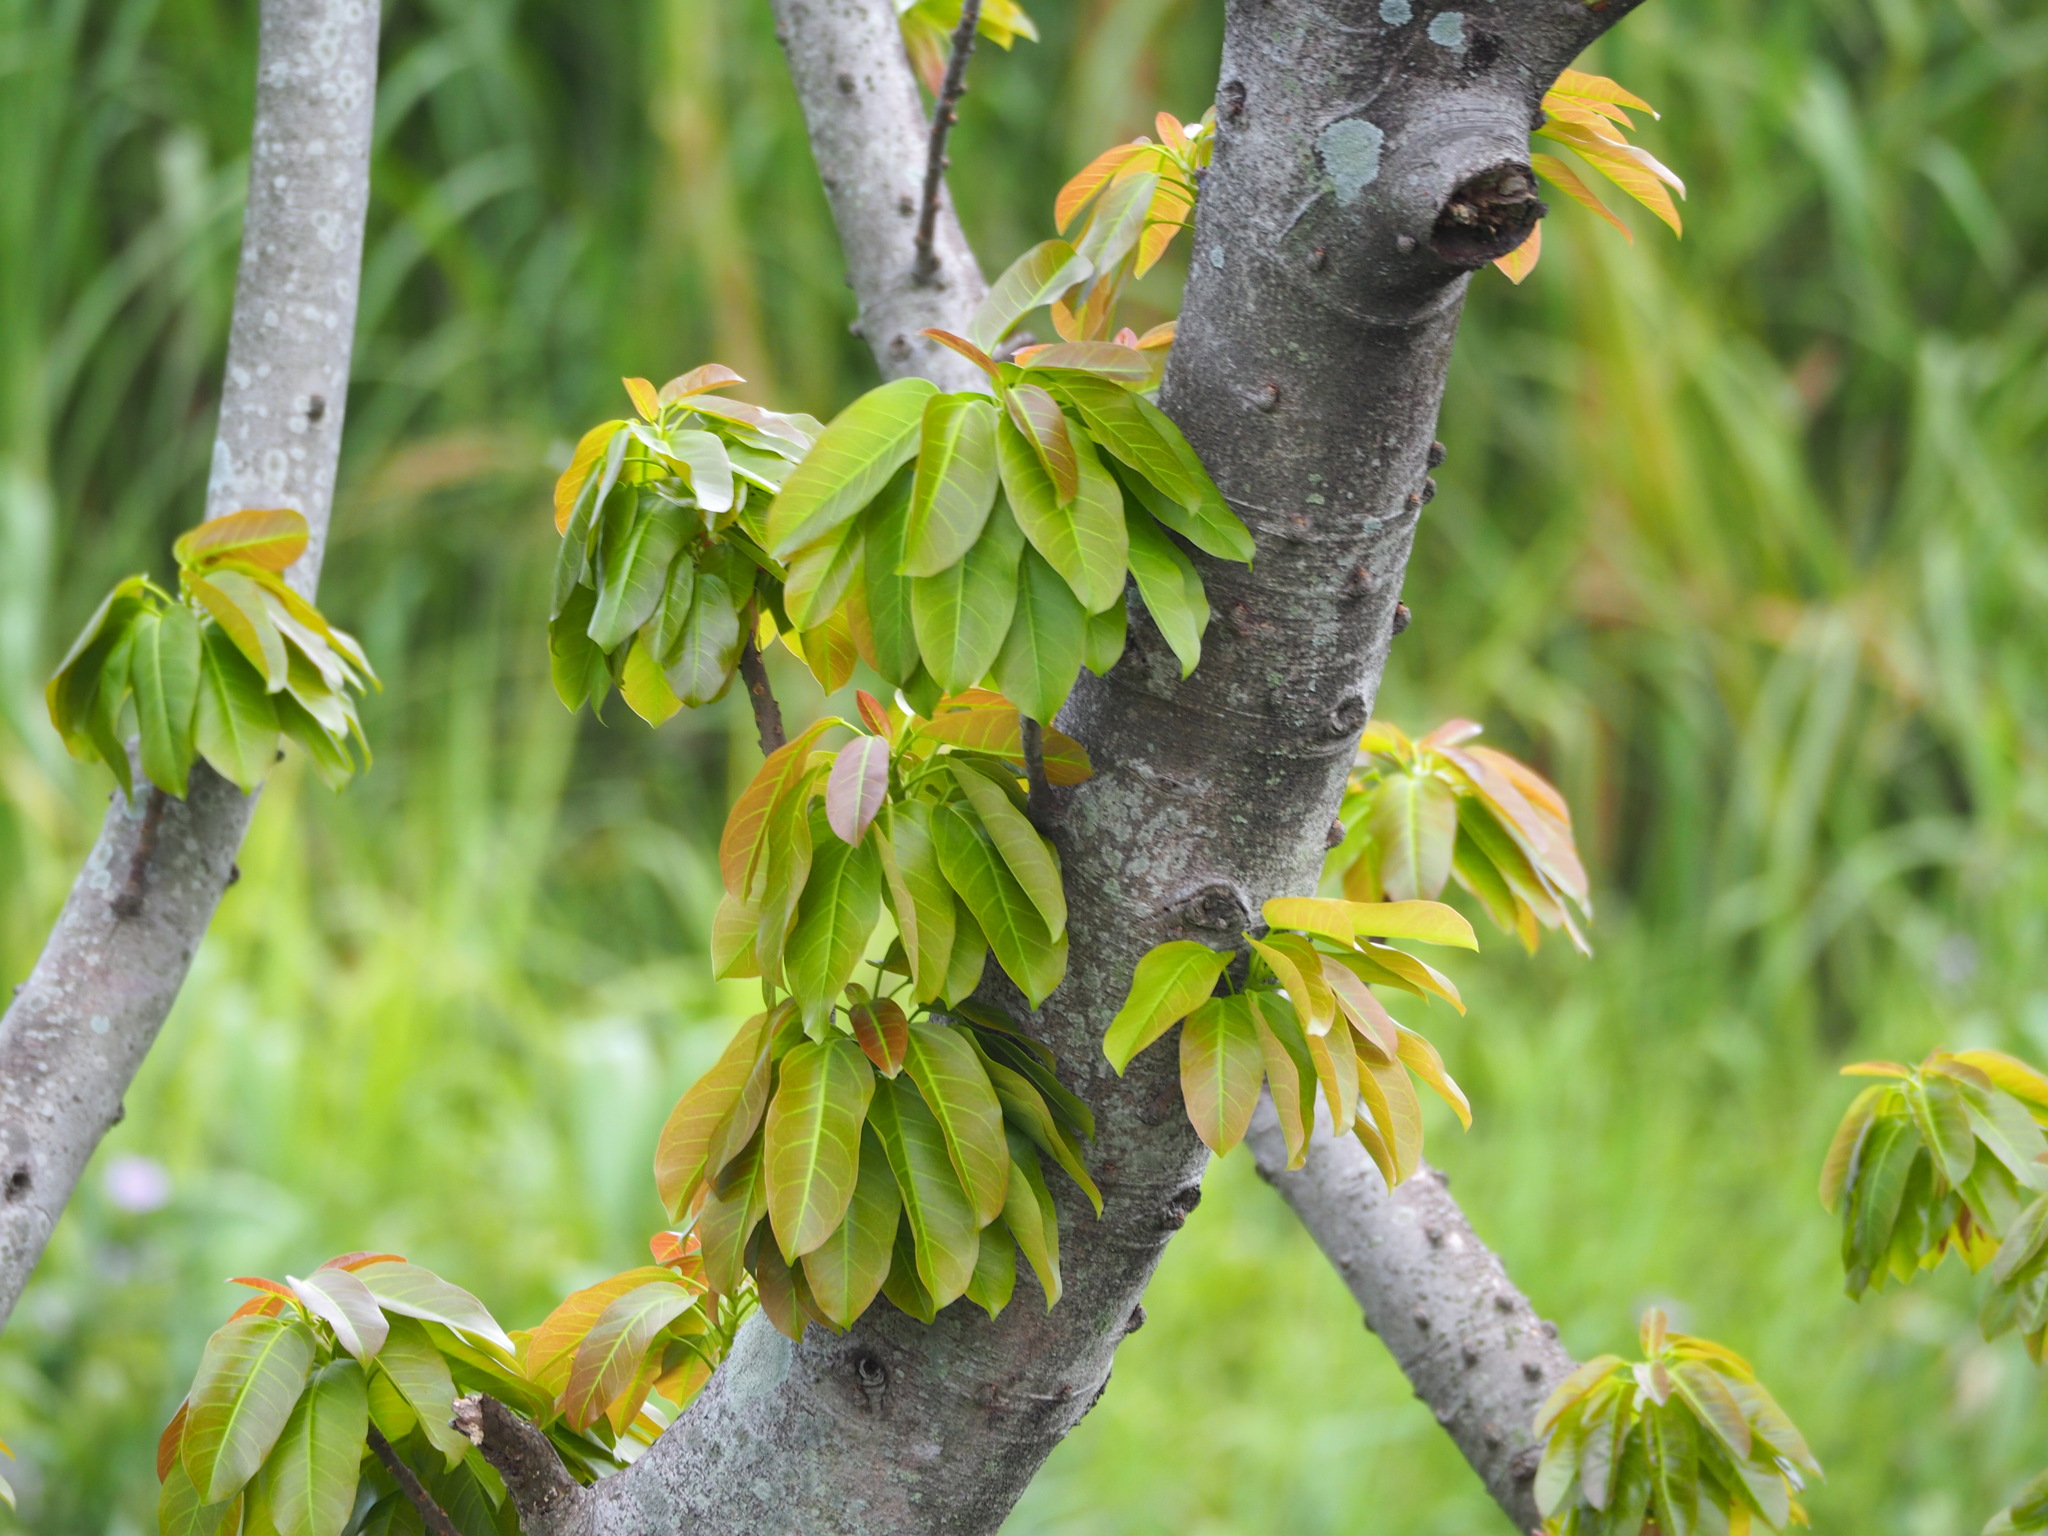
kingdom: Plantae
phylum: Tracheophyta
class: Magnoliopsida
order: Rosales
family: Moraceae
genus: Ficus
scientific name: Ficus subpisocarpa
